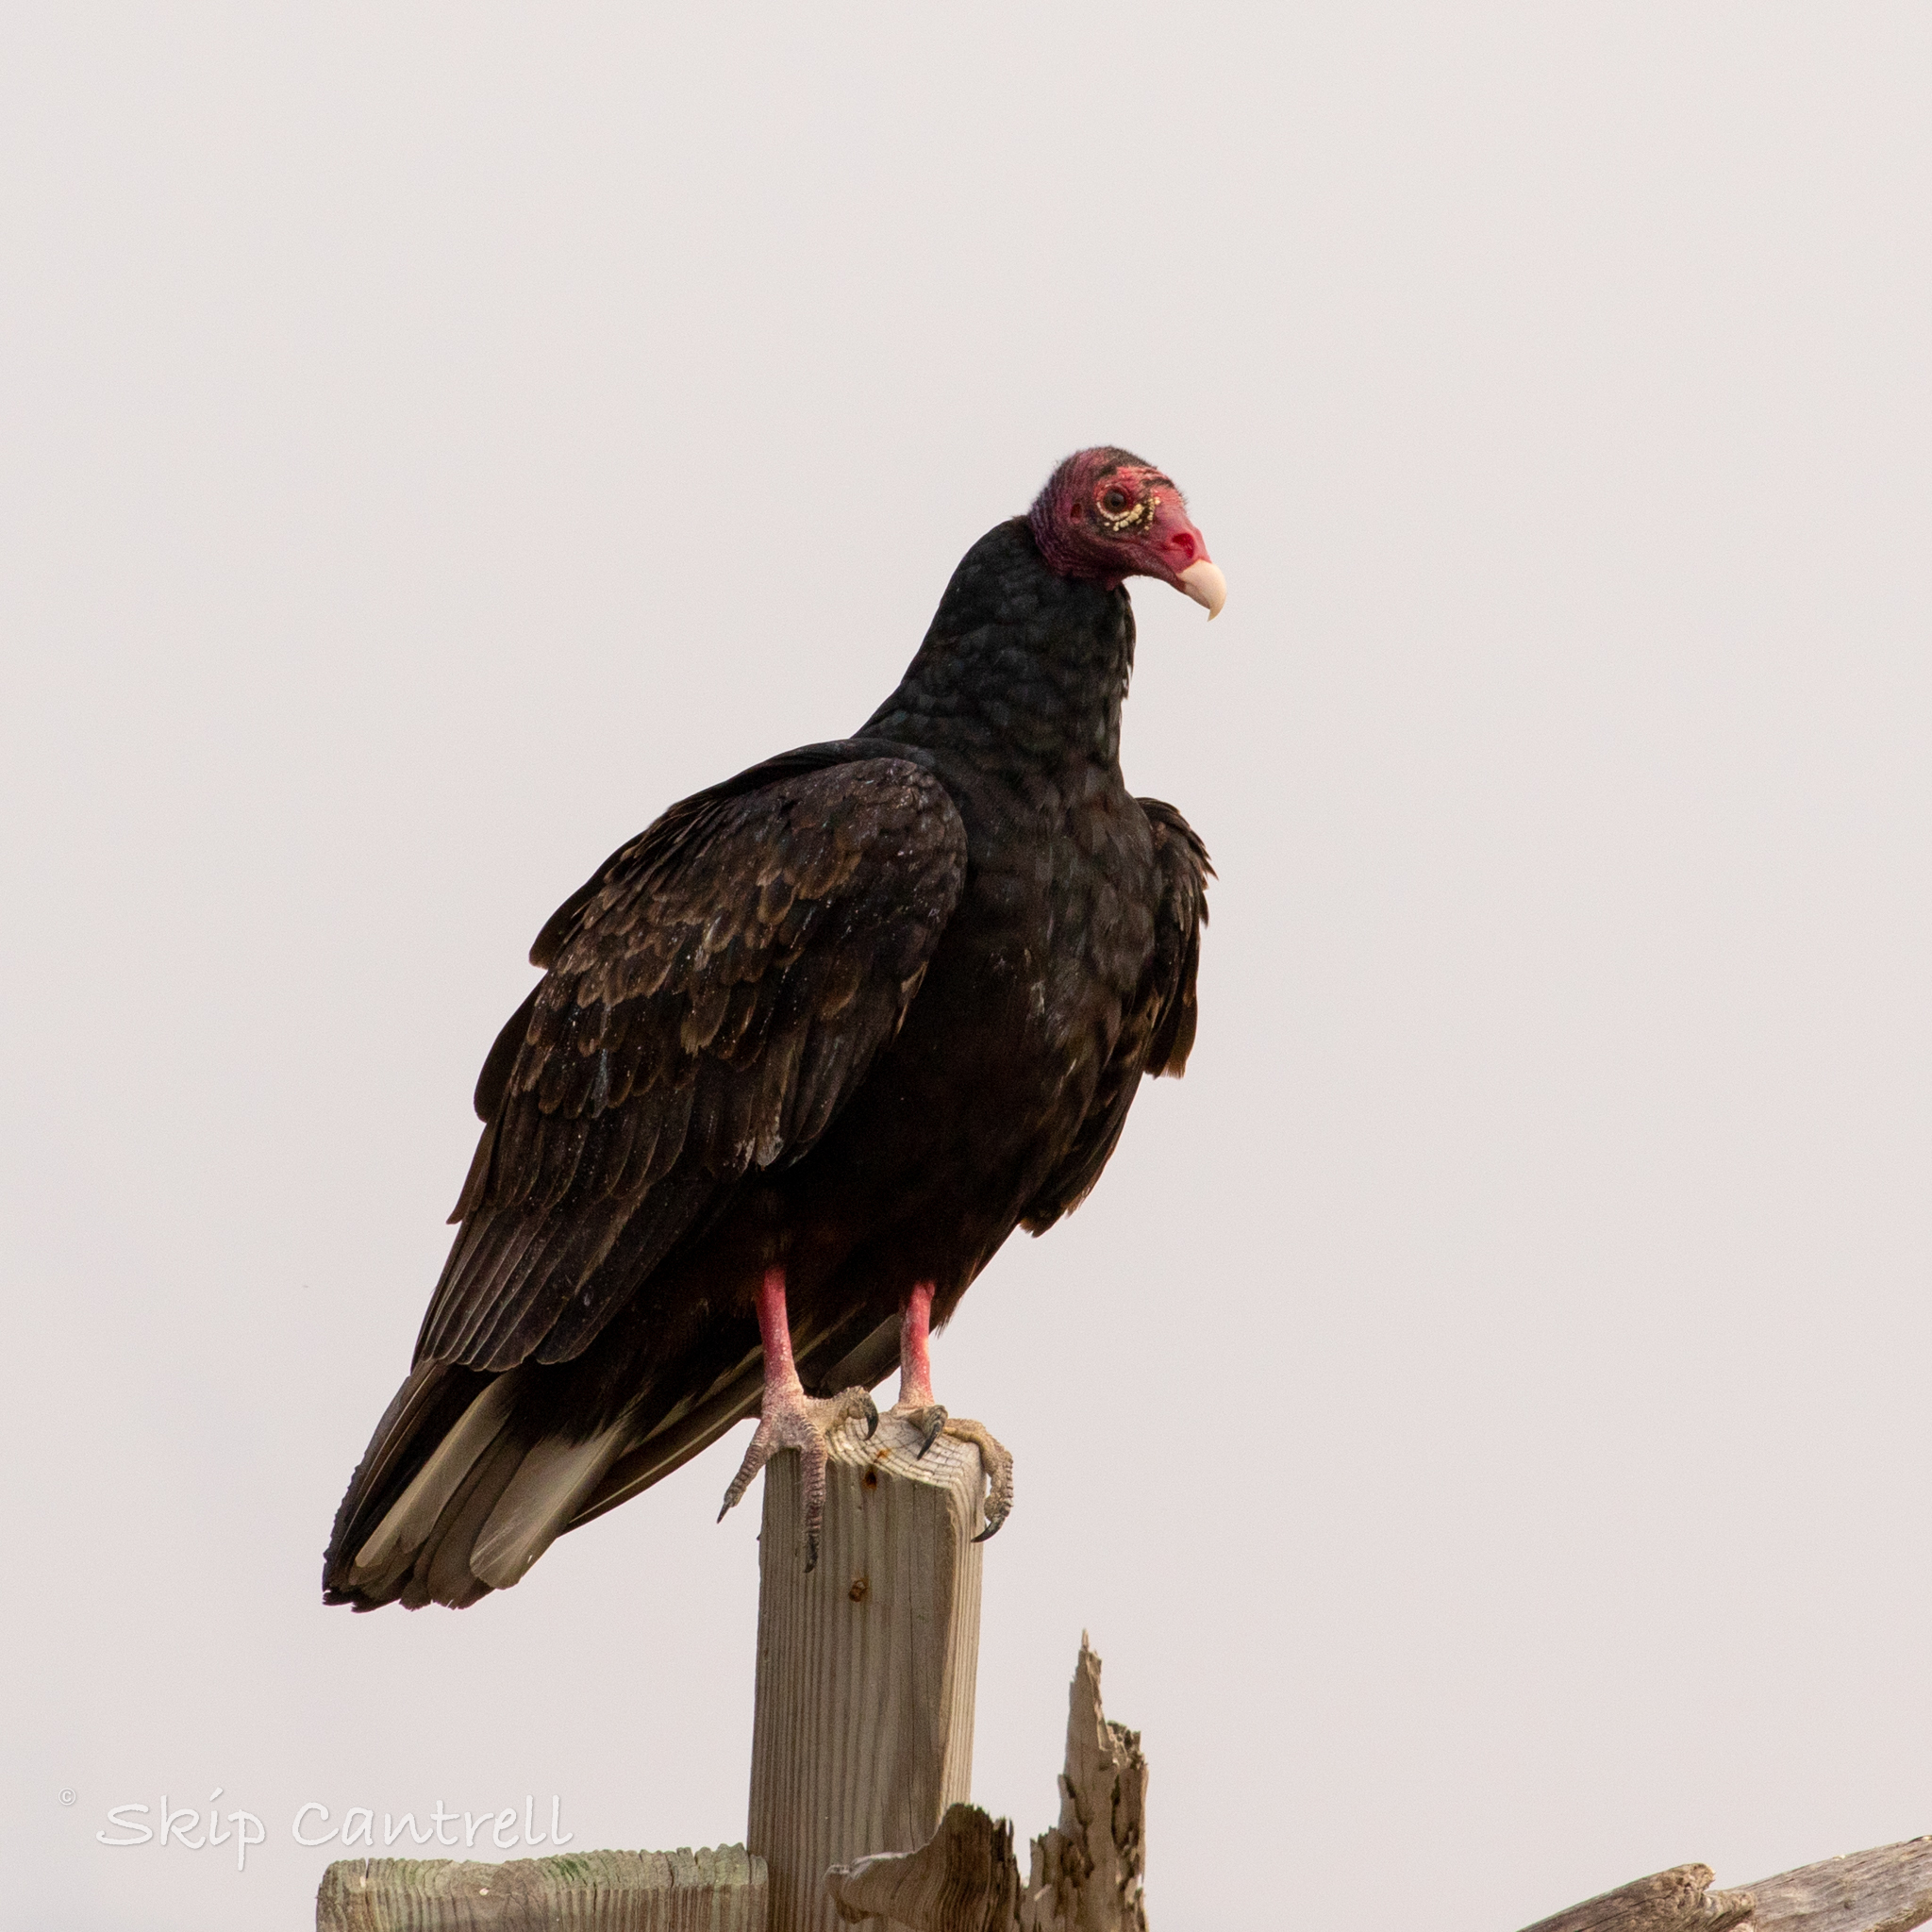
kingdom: Animalia
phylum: Chordata
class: Aves
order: Accipitriformes
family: Cathartidae
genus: Cathartes
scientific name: Cathartes aura
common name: Turkey vulture
